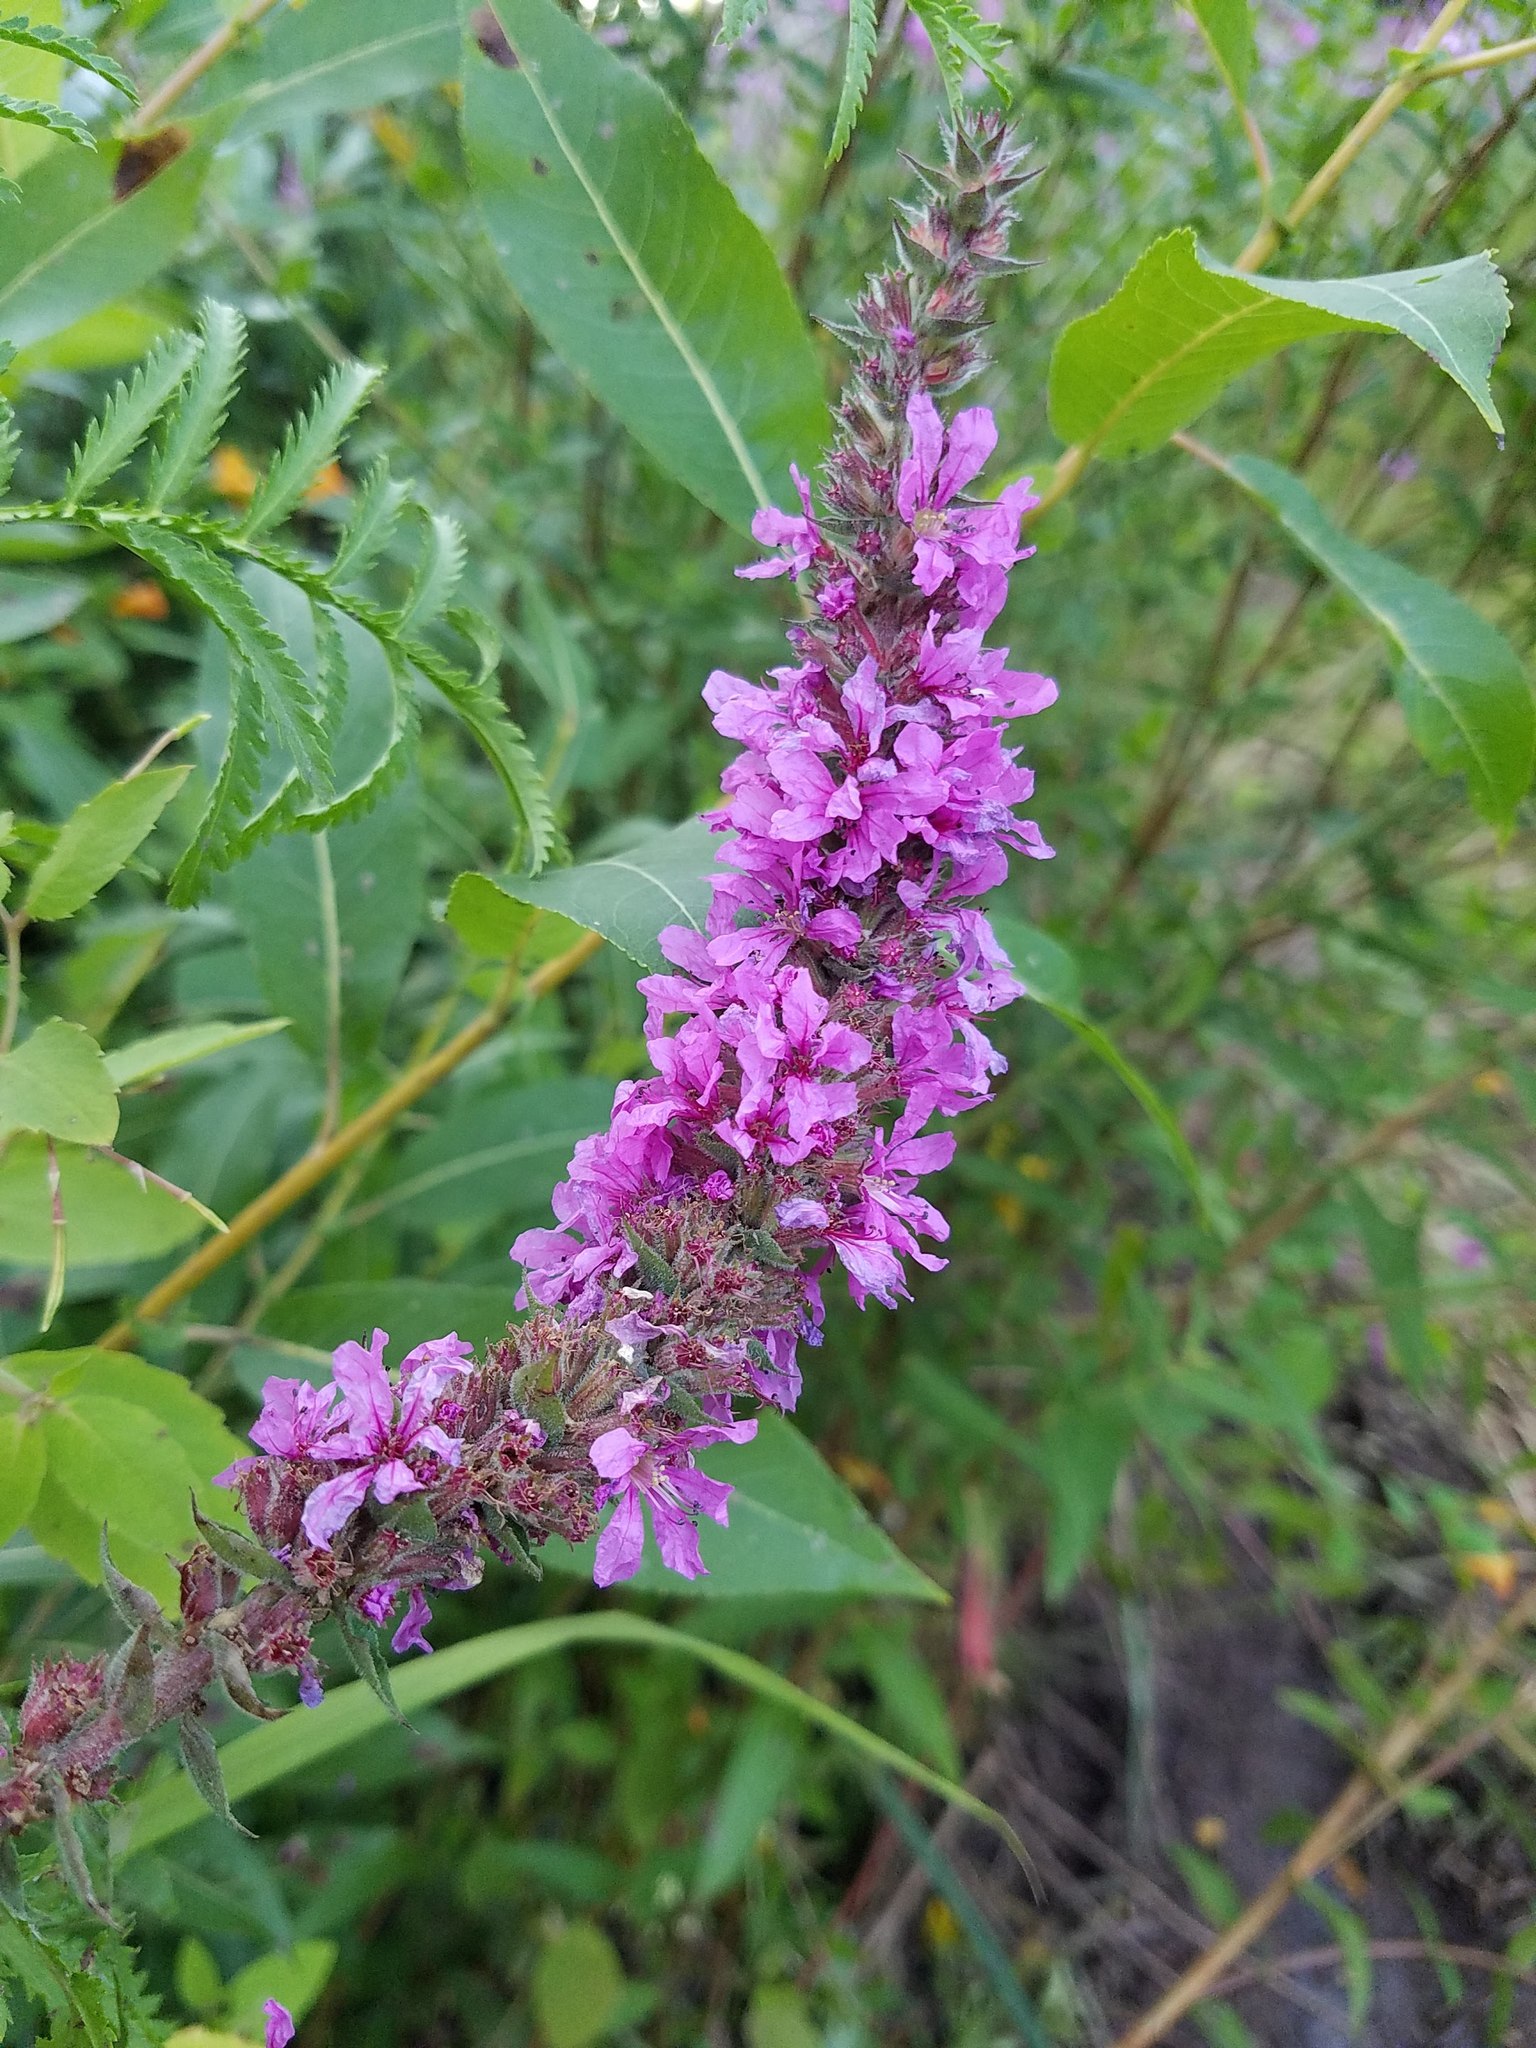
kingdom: Plantae
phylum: Tracheophyta
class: Magnoliopsida
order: Myrtales
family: Lythraceae
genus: Lythrum
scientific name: Lythrum salicaria
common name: Purple loosestrife
